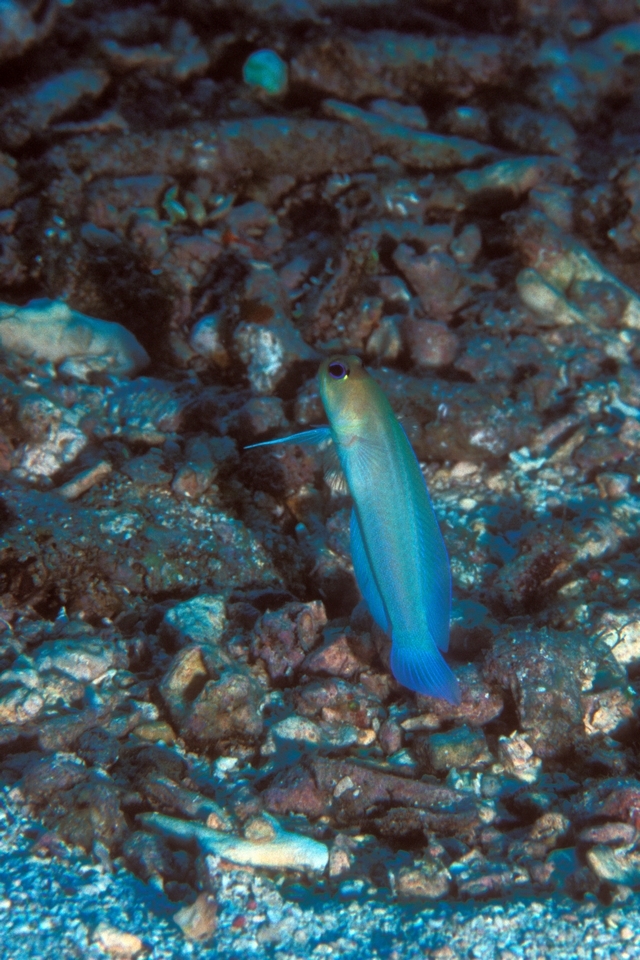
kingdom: Animalia
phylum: Chordata
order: Perciformes
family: Opistognathidae
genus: Opistognathus
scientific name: Opistognathus aurifrons
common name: Yellowhead jawfish
